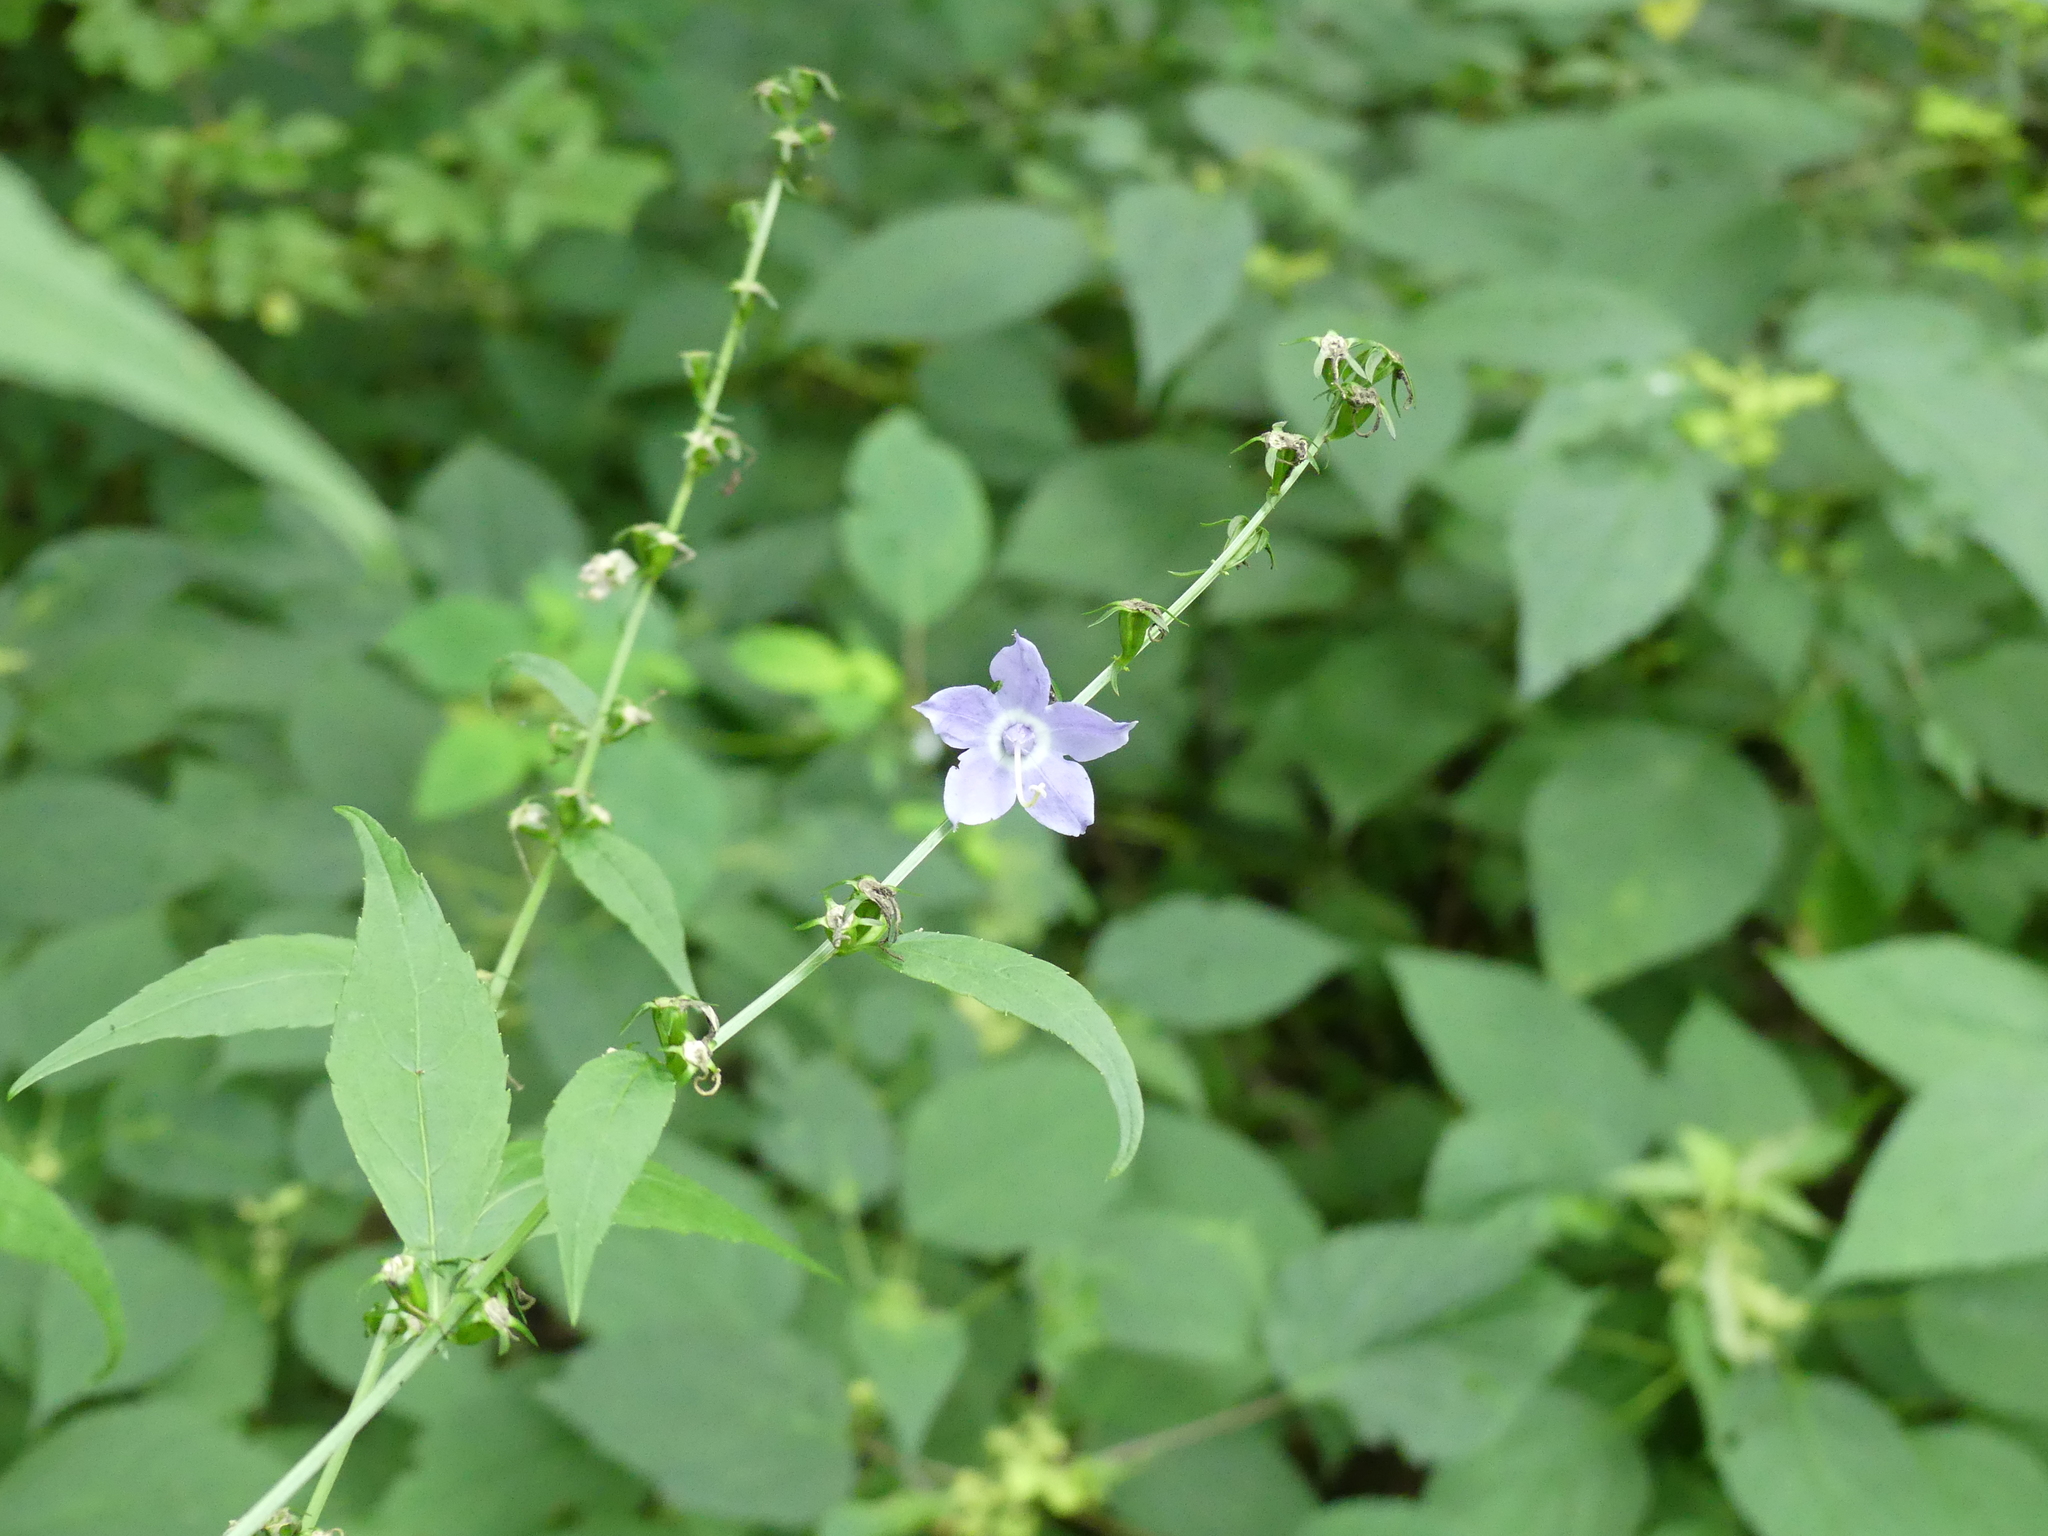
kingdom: Plantae
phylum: Tracheophyta
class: Magnoliopsida
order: Asterales
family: Campanulaceae
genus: Campanulastrum
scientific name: Campanulastrum americanum
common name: American bellflower
